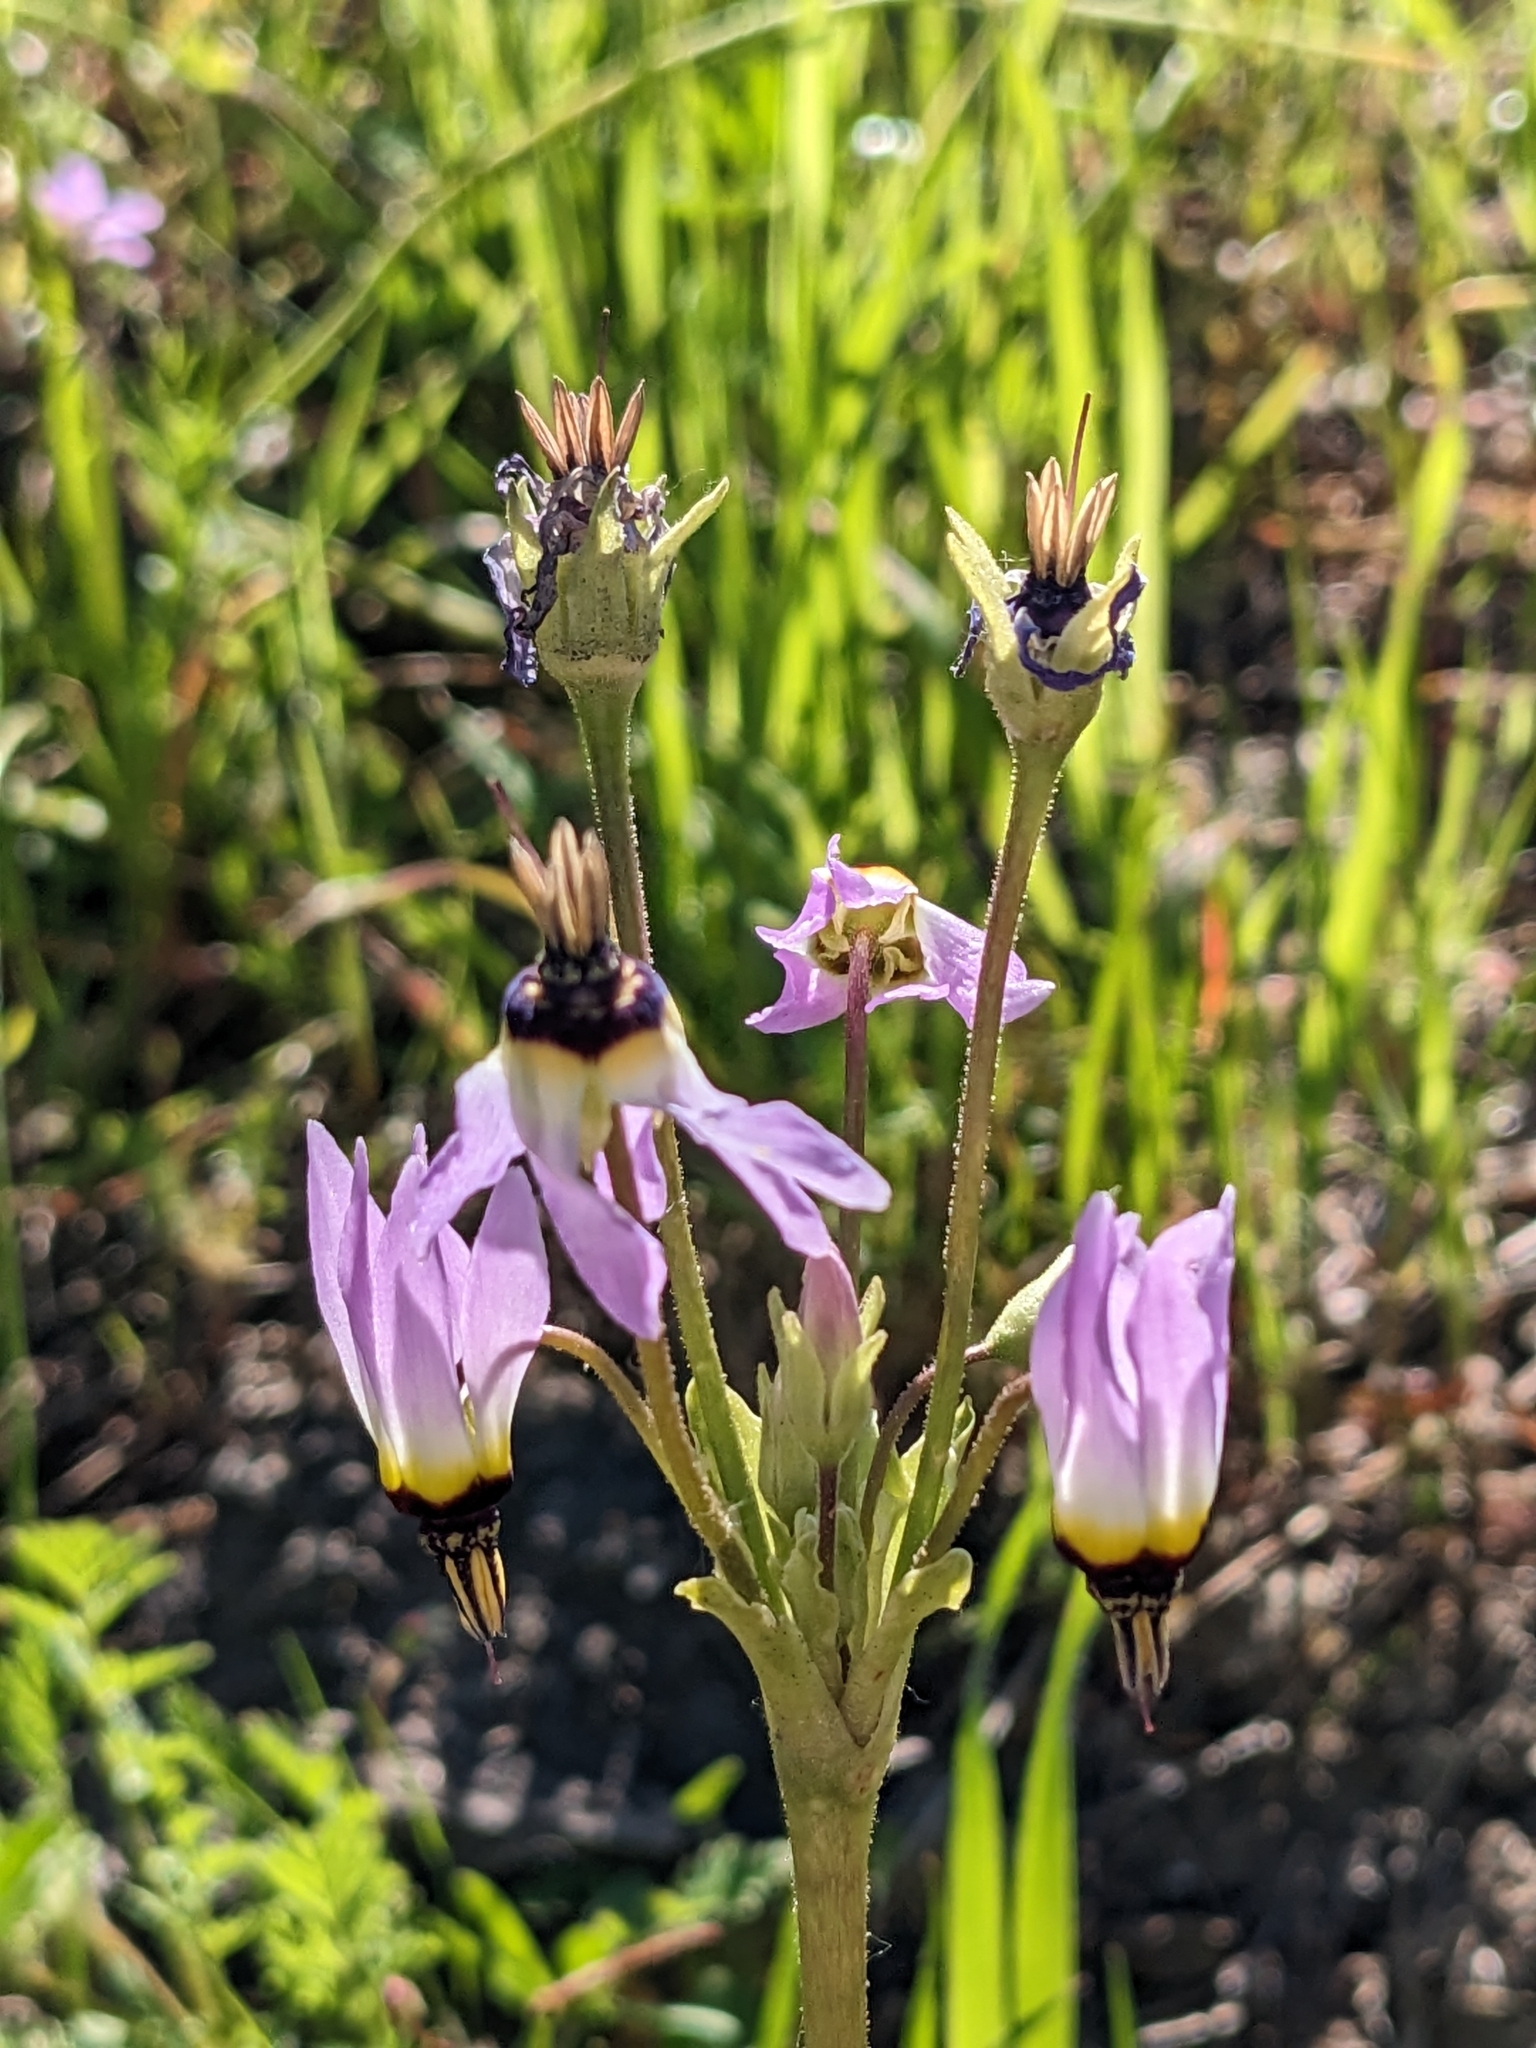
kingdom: Plantae
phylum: Tracheophyta
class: Magnoliopsida
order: Ericales
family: Primulaceae
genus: Dodecatheon
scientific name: Dodecatheon clevelandii
